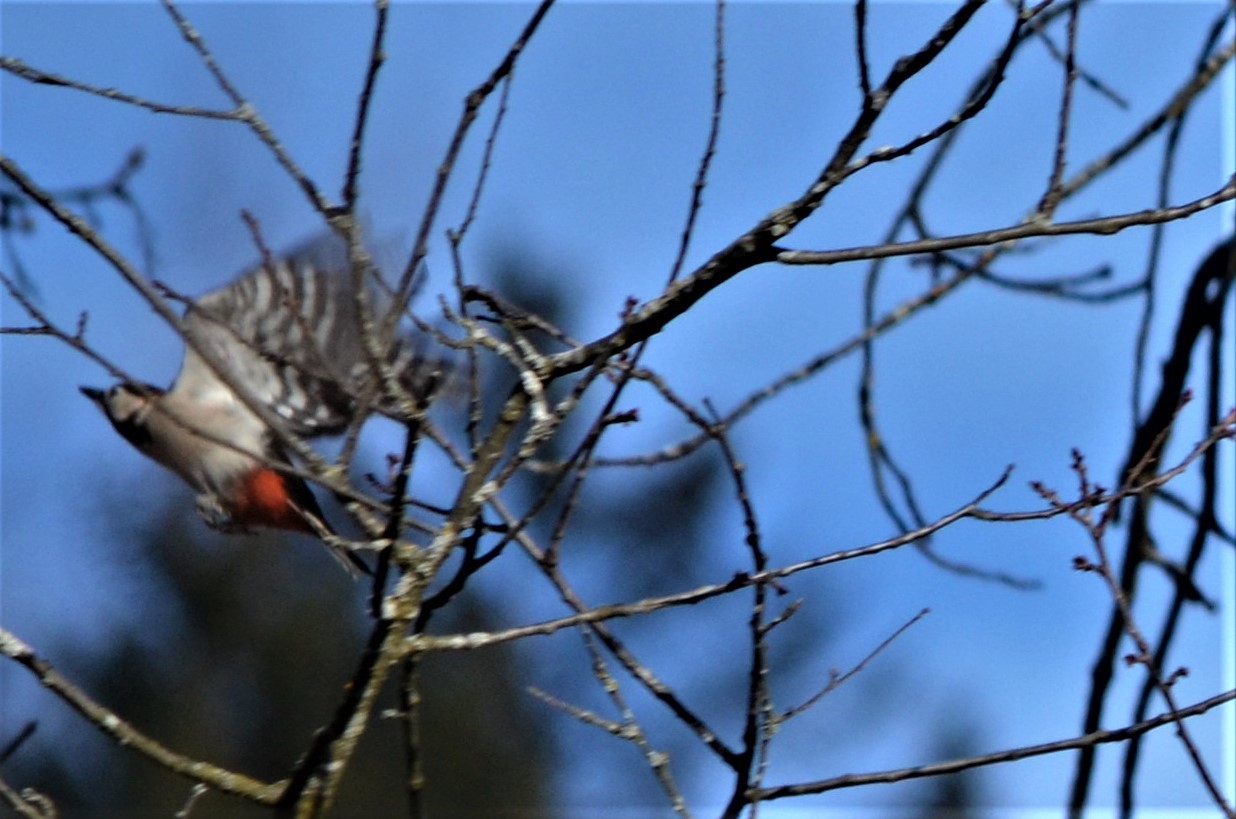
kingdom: Animalia
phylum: Chordata
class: Aves
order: Piciformes
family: Picidae
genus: Dendrocopos
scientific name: Dendrocopos major
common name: Great spotted woodpecker
